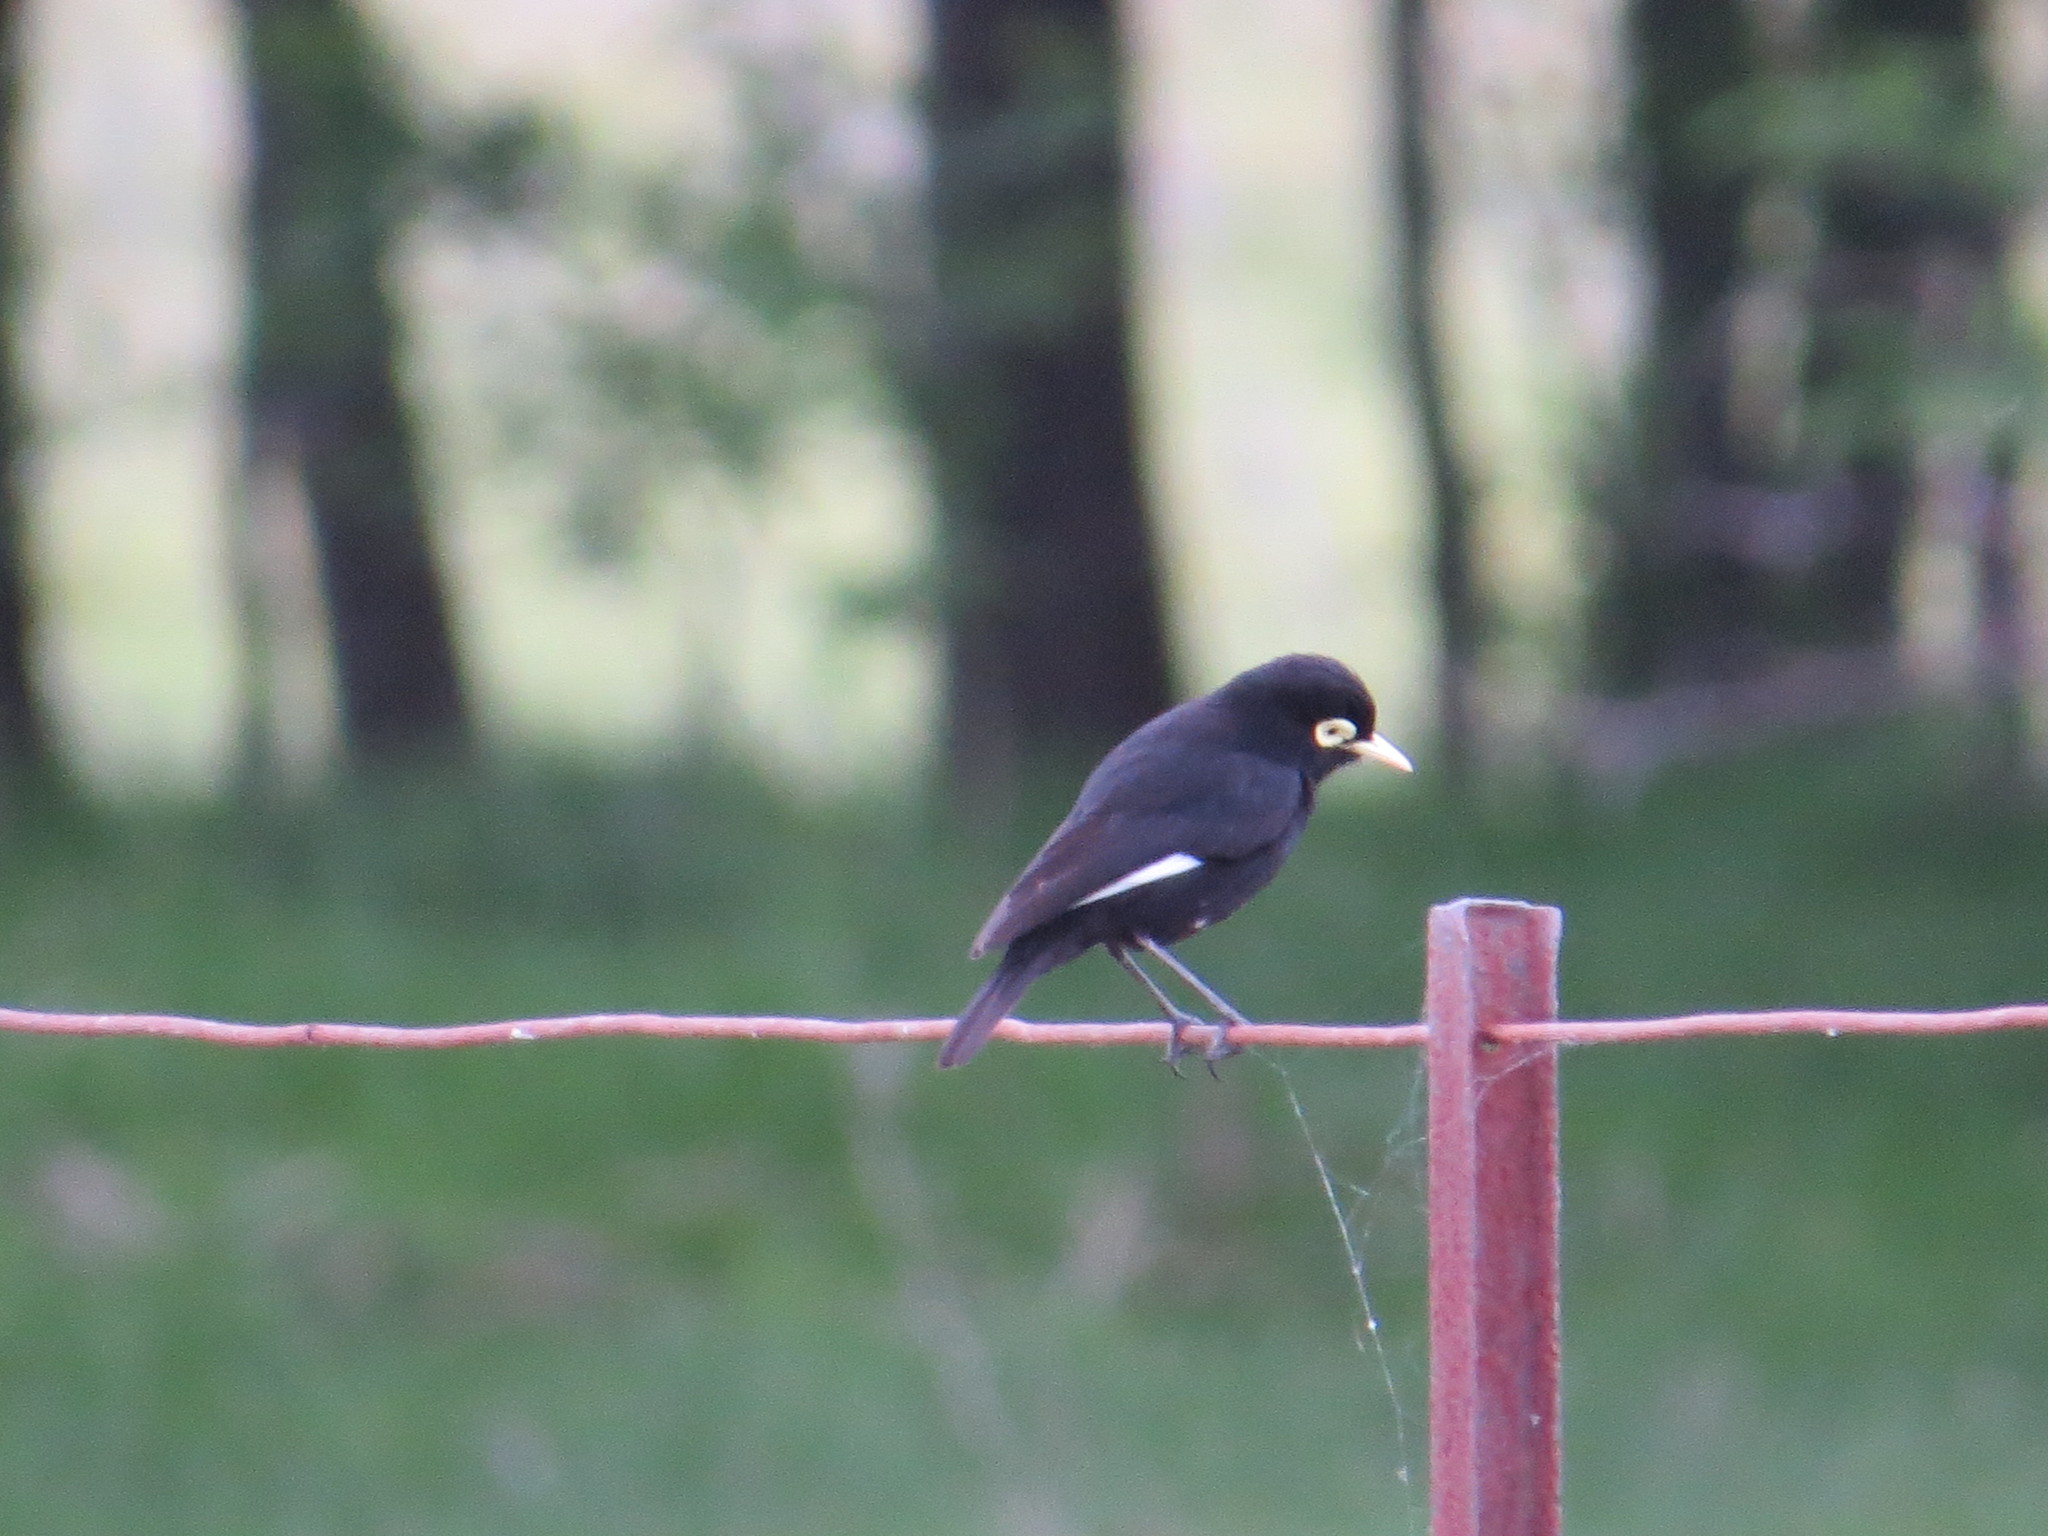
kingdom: Animalia
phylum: Chordata
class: Aves
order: Passeriformes
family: Tyrannidae
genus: Hymenops
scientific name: Hymenops perspicillatus
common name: Spectacled tyrant
